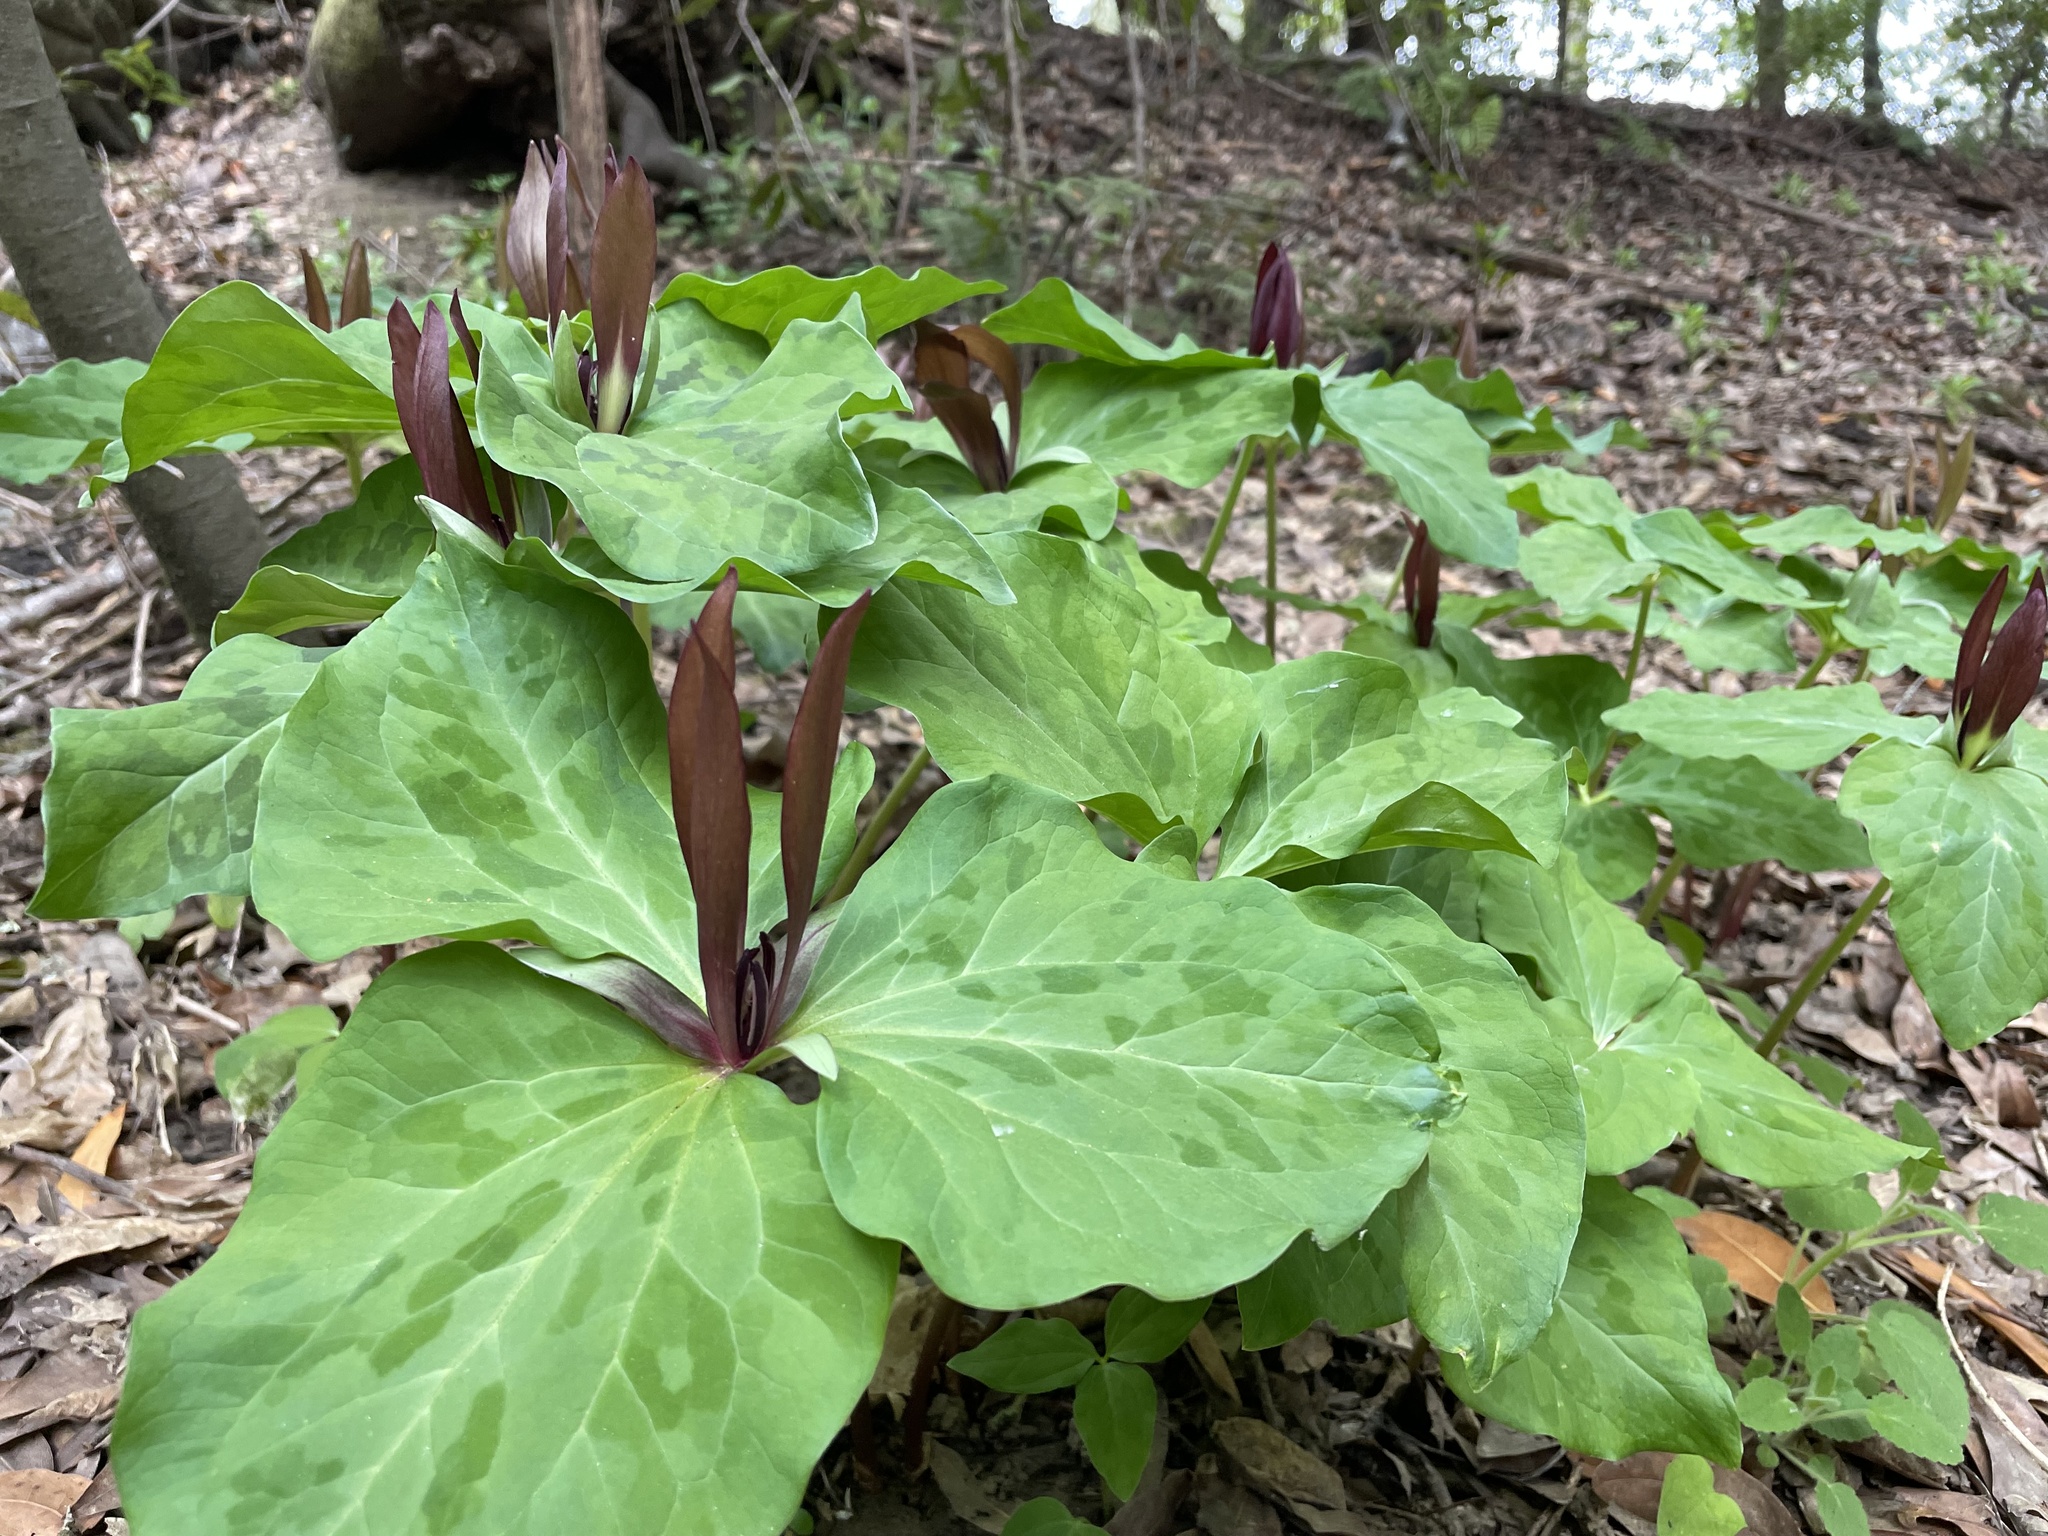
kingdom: Plantae
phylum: Tracheophyta
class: Liliopsida
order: Liliales
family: Melanthiaceae
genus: Trillium
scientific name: Trillium chloropetalum
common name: Giant trillium
